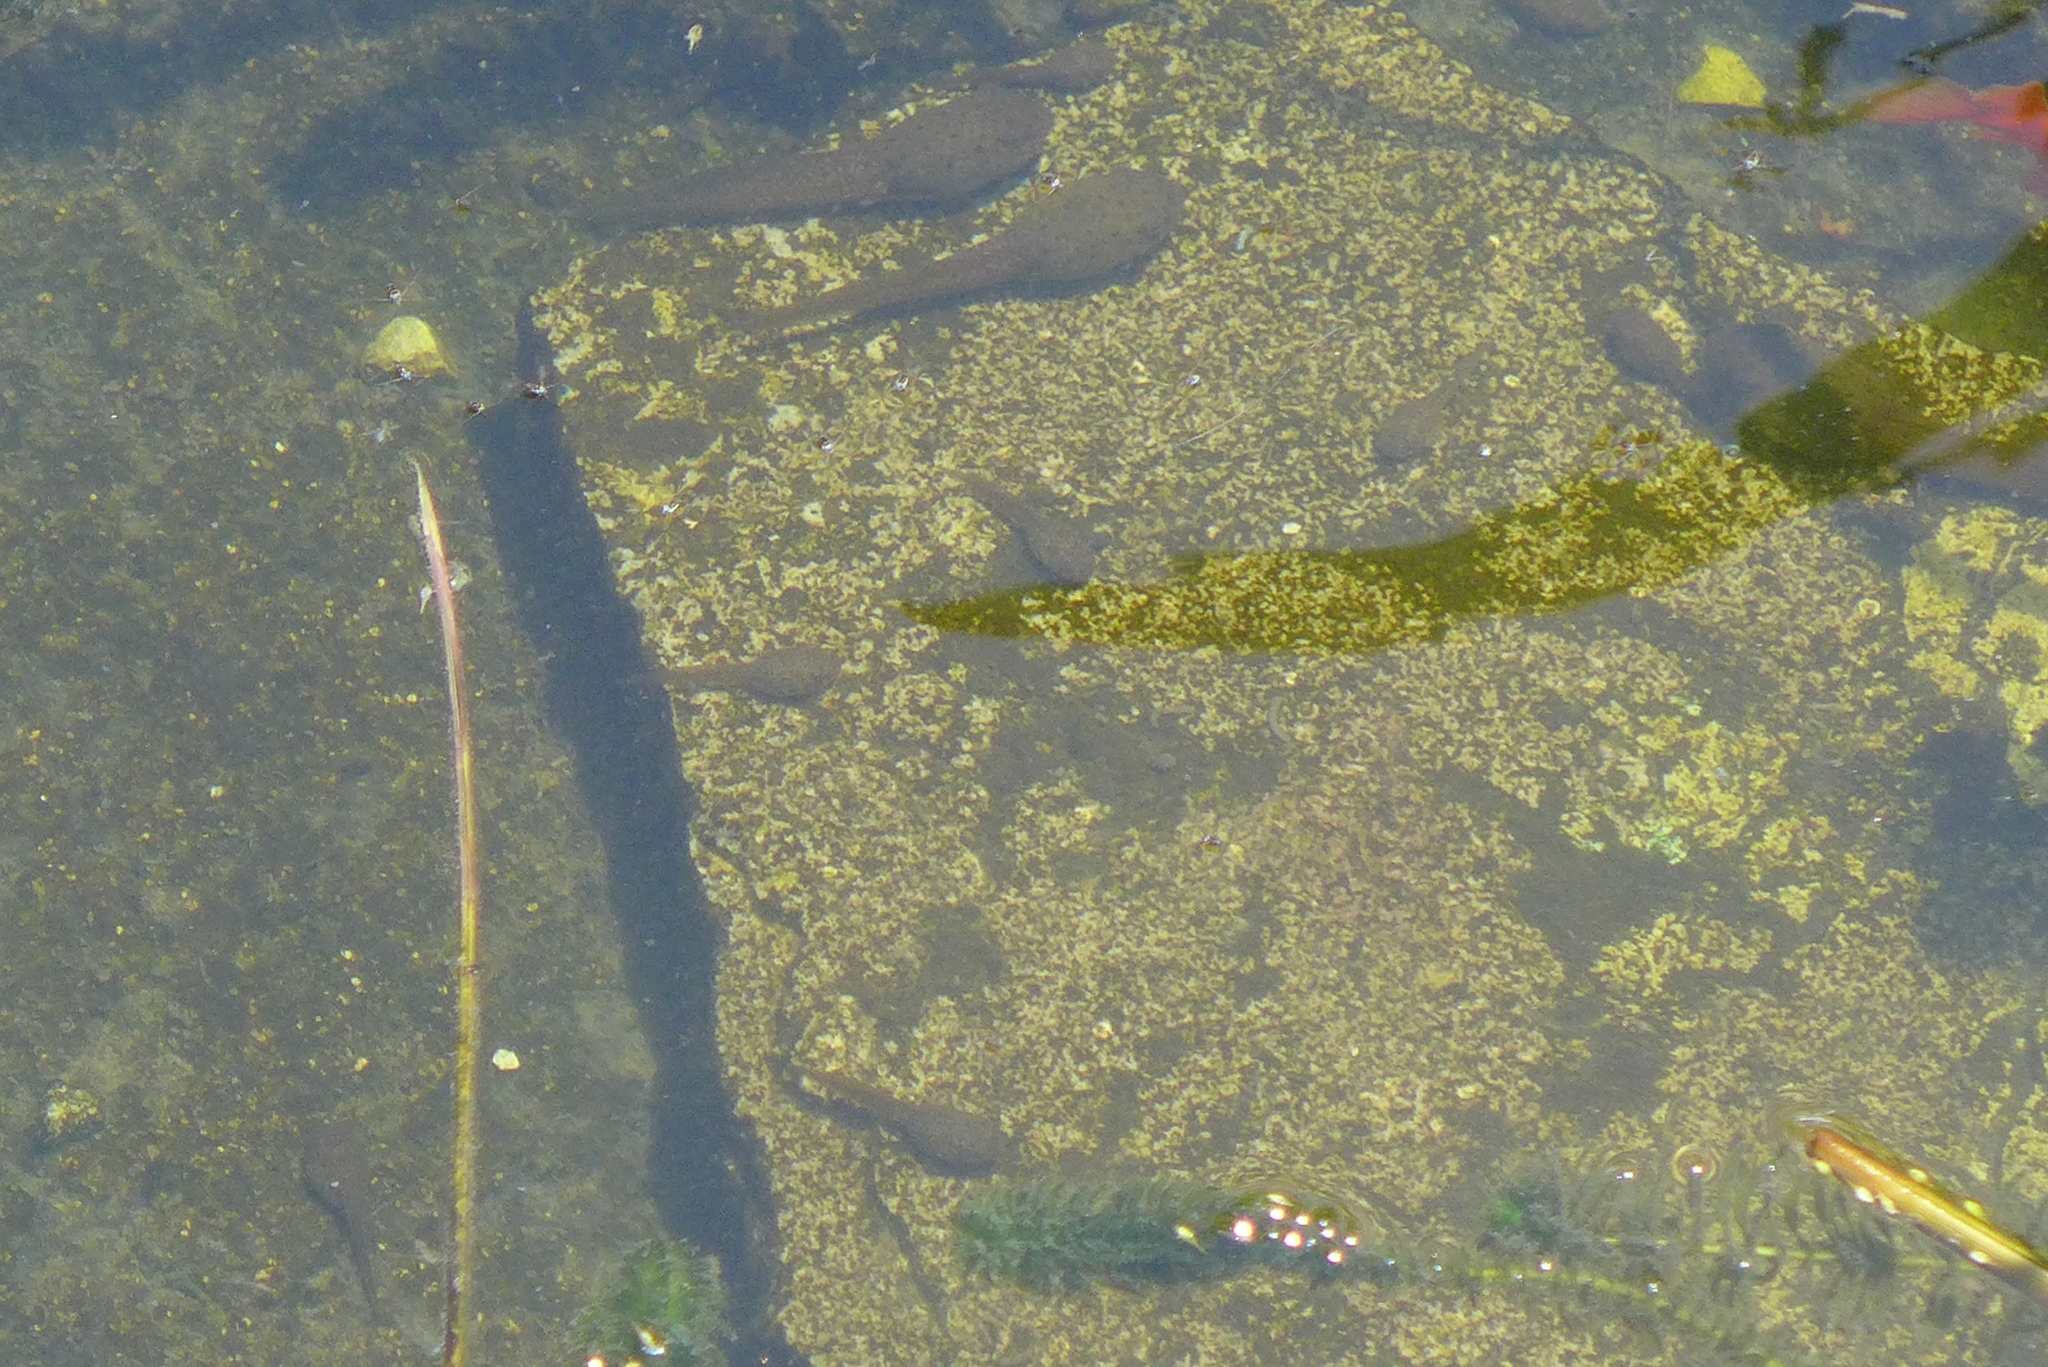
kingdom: Animalia
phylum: Chordata
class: Amphibia
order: Anura
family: Ranidae
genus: Lithobates
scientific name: Lithobates catesbeianus
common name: American bullfrog
